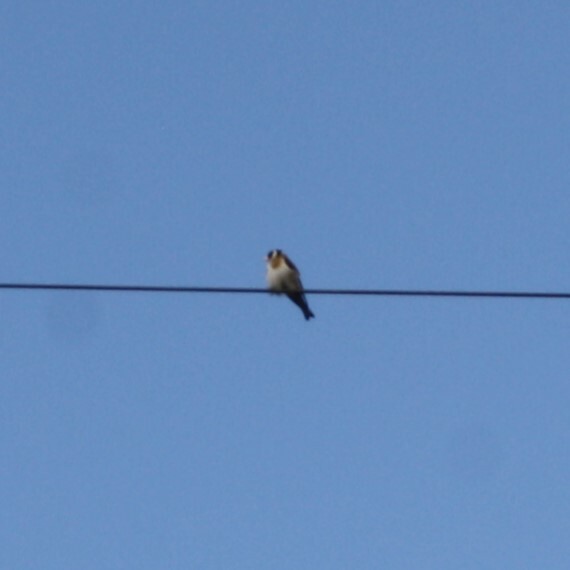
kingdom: Animalia
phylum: Chordata
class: Aves
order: Passeriformes
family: Fringillidae
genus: Carduelis
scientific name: Carduelis carduelis
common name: European goldfinch
